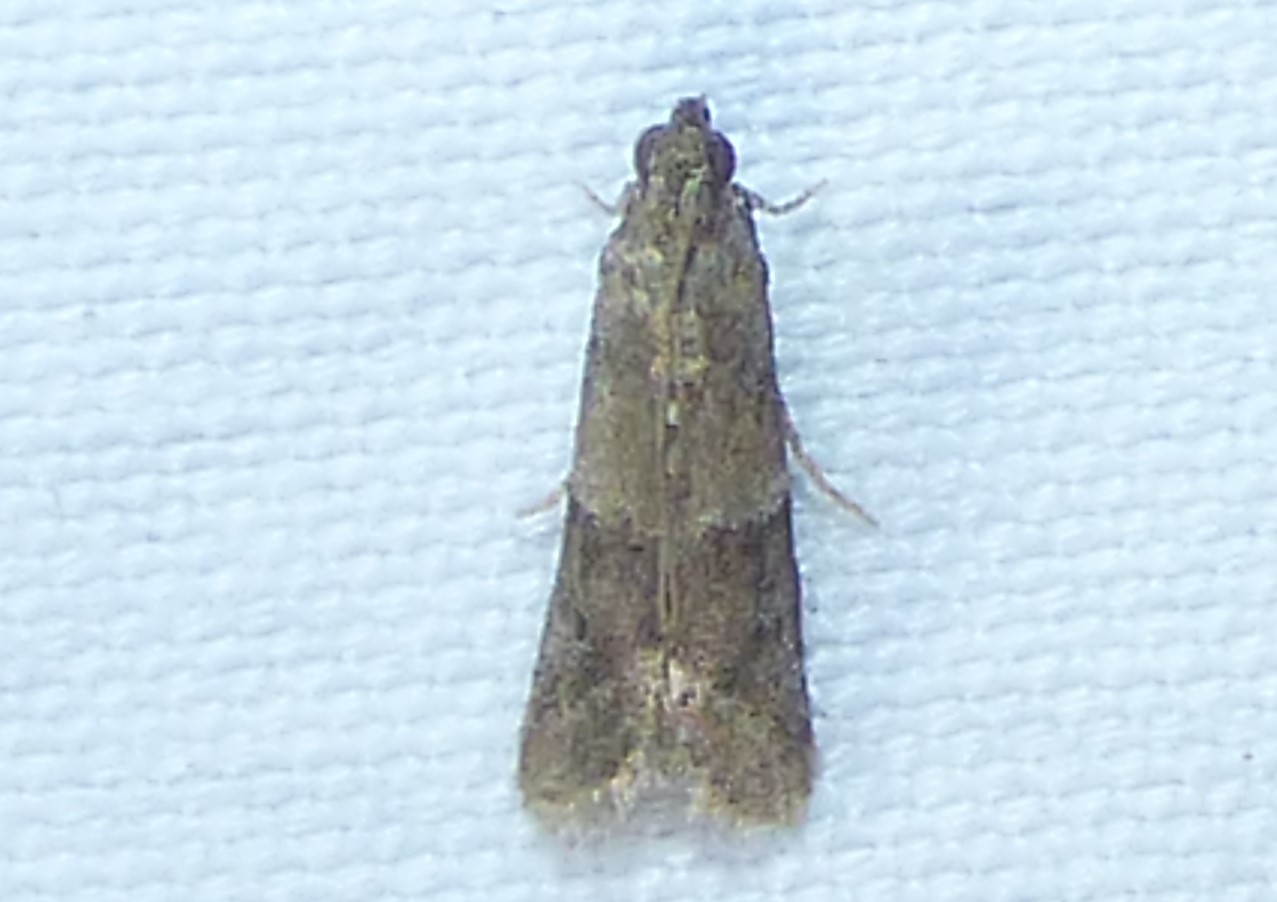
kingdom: Animalia
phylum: Arthropoda
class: Insecta
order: Lepidoptera
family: Pyralidae
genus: Ephestiodes
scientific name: Ephestiodes infimella
